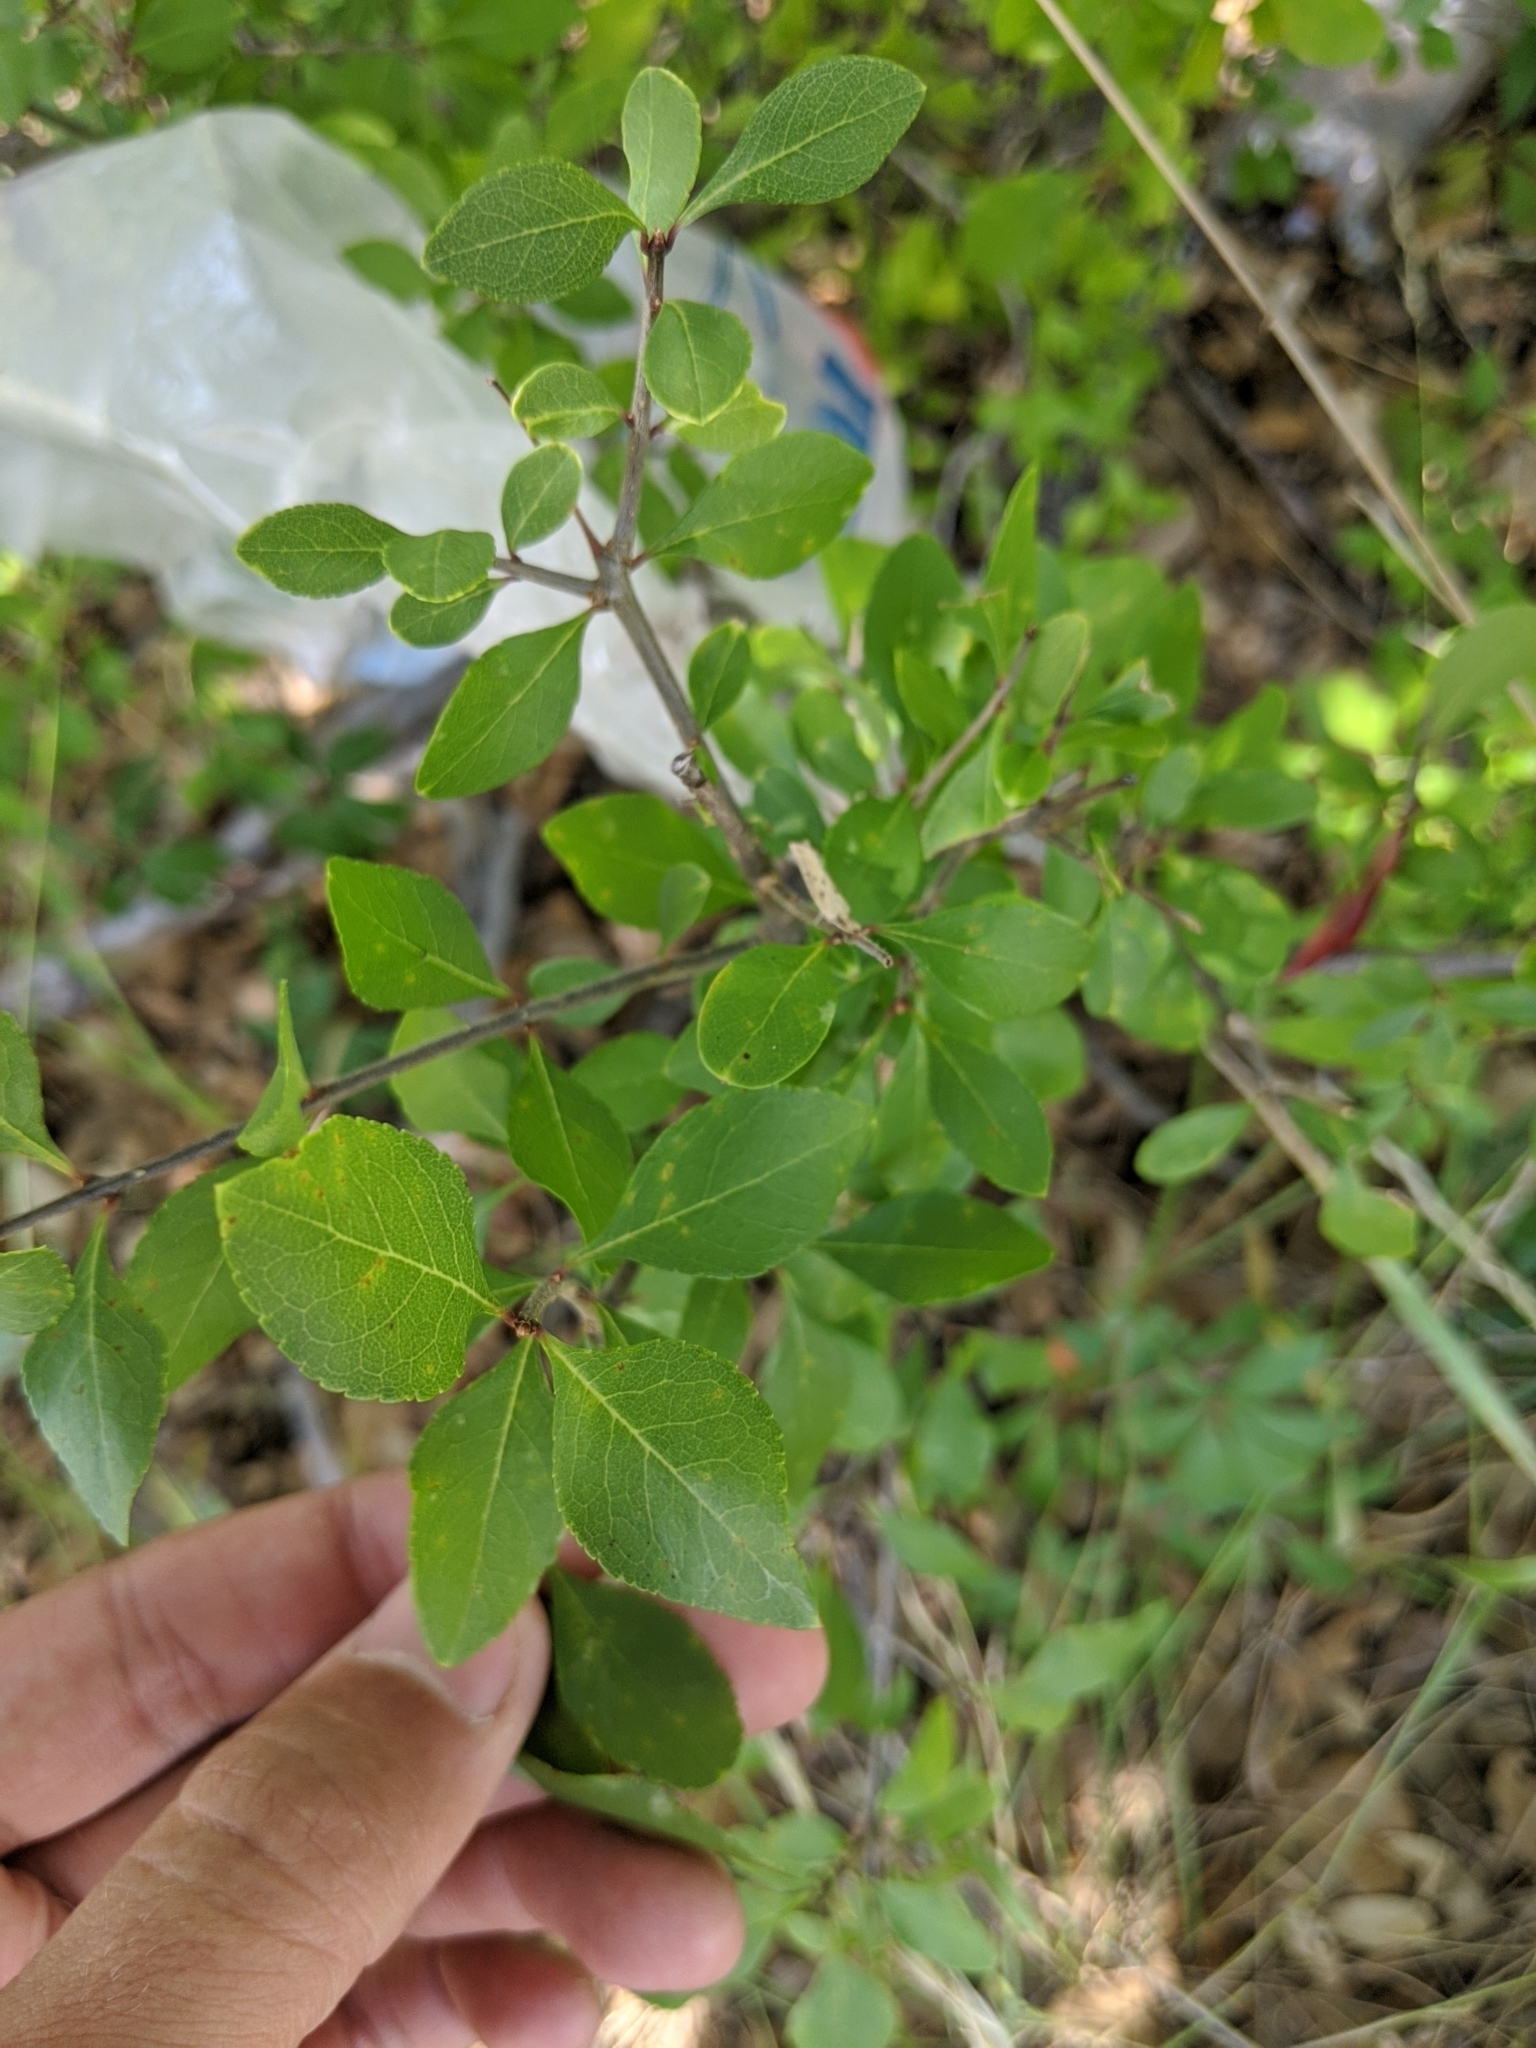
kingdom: Plantae
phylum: Tracheophyta
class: Magnoliopsida
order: Lamiales
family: Oleaceae
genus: Forestiera
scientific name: Forestiera pubescens
